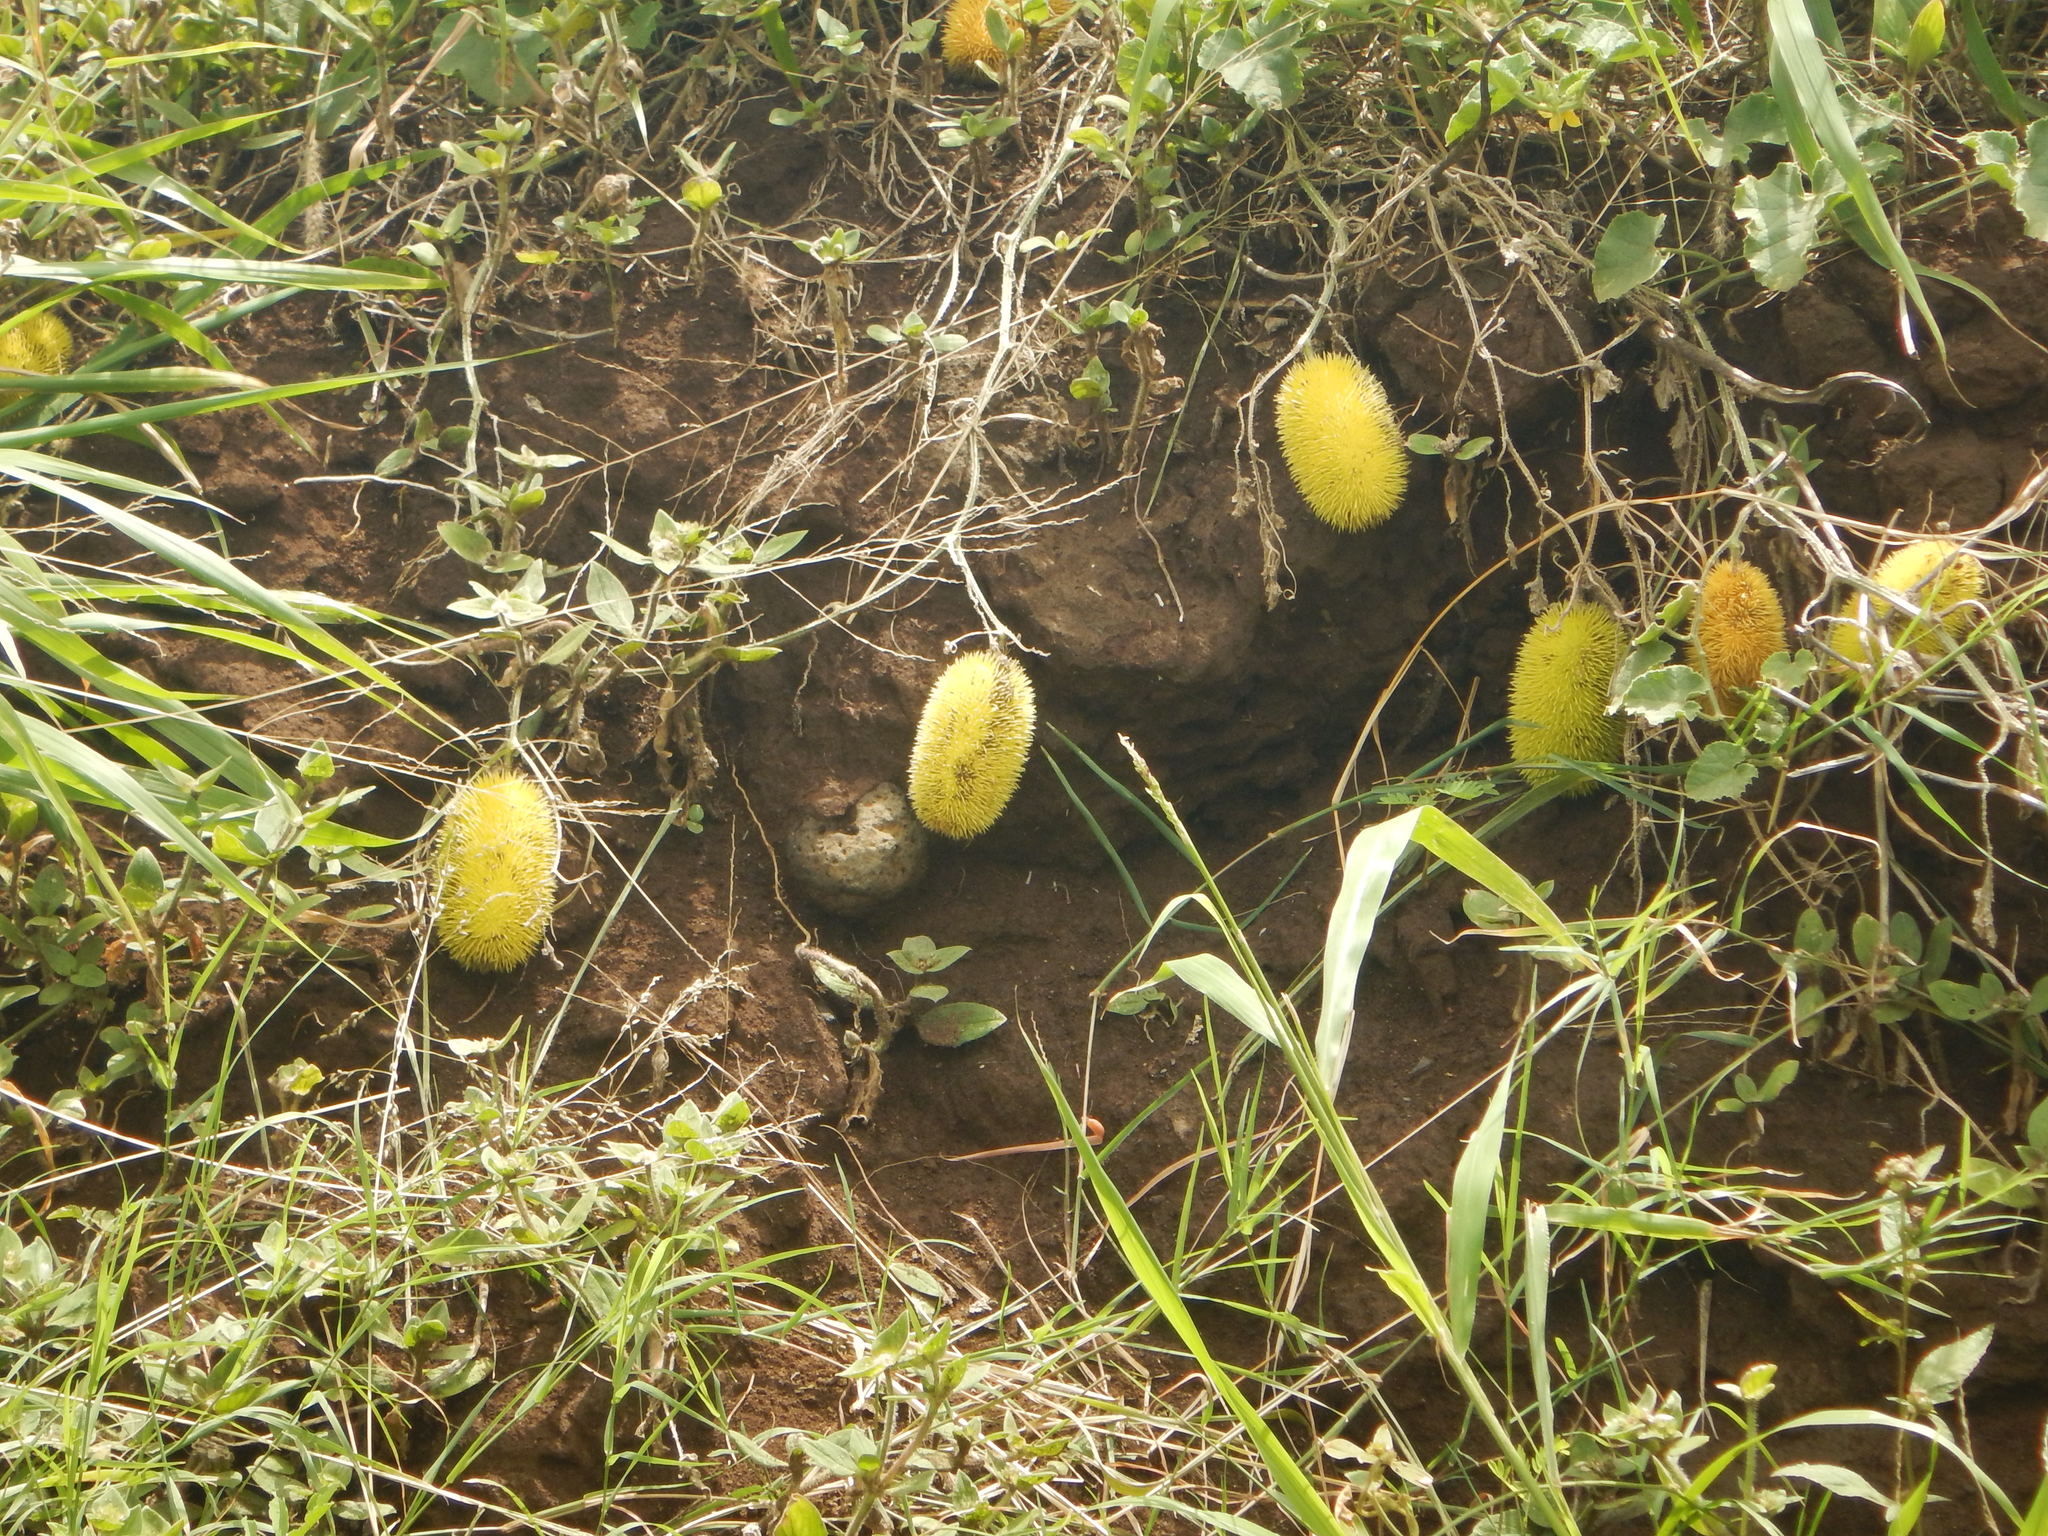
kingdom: Plantae
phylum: Tracheophyta
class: Magnoliopsida
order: Cucurbitales
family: Cucurbitaceae
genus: Cucumis
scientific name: Cucumis dipsaceus
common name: Hedgehog gourd
